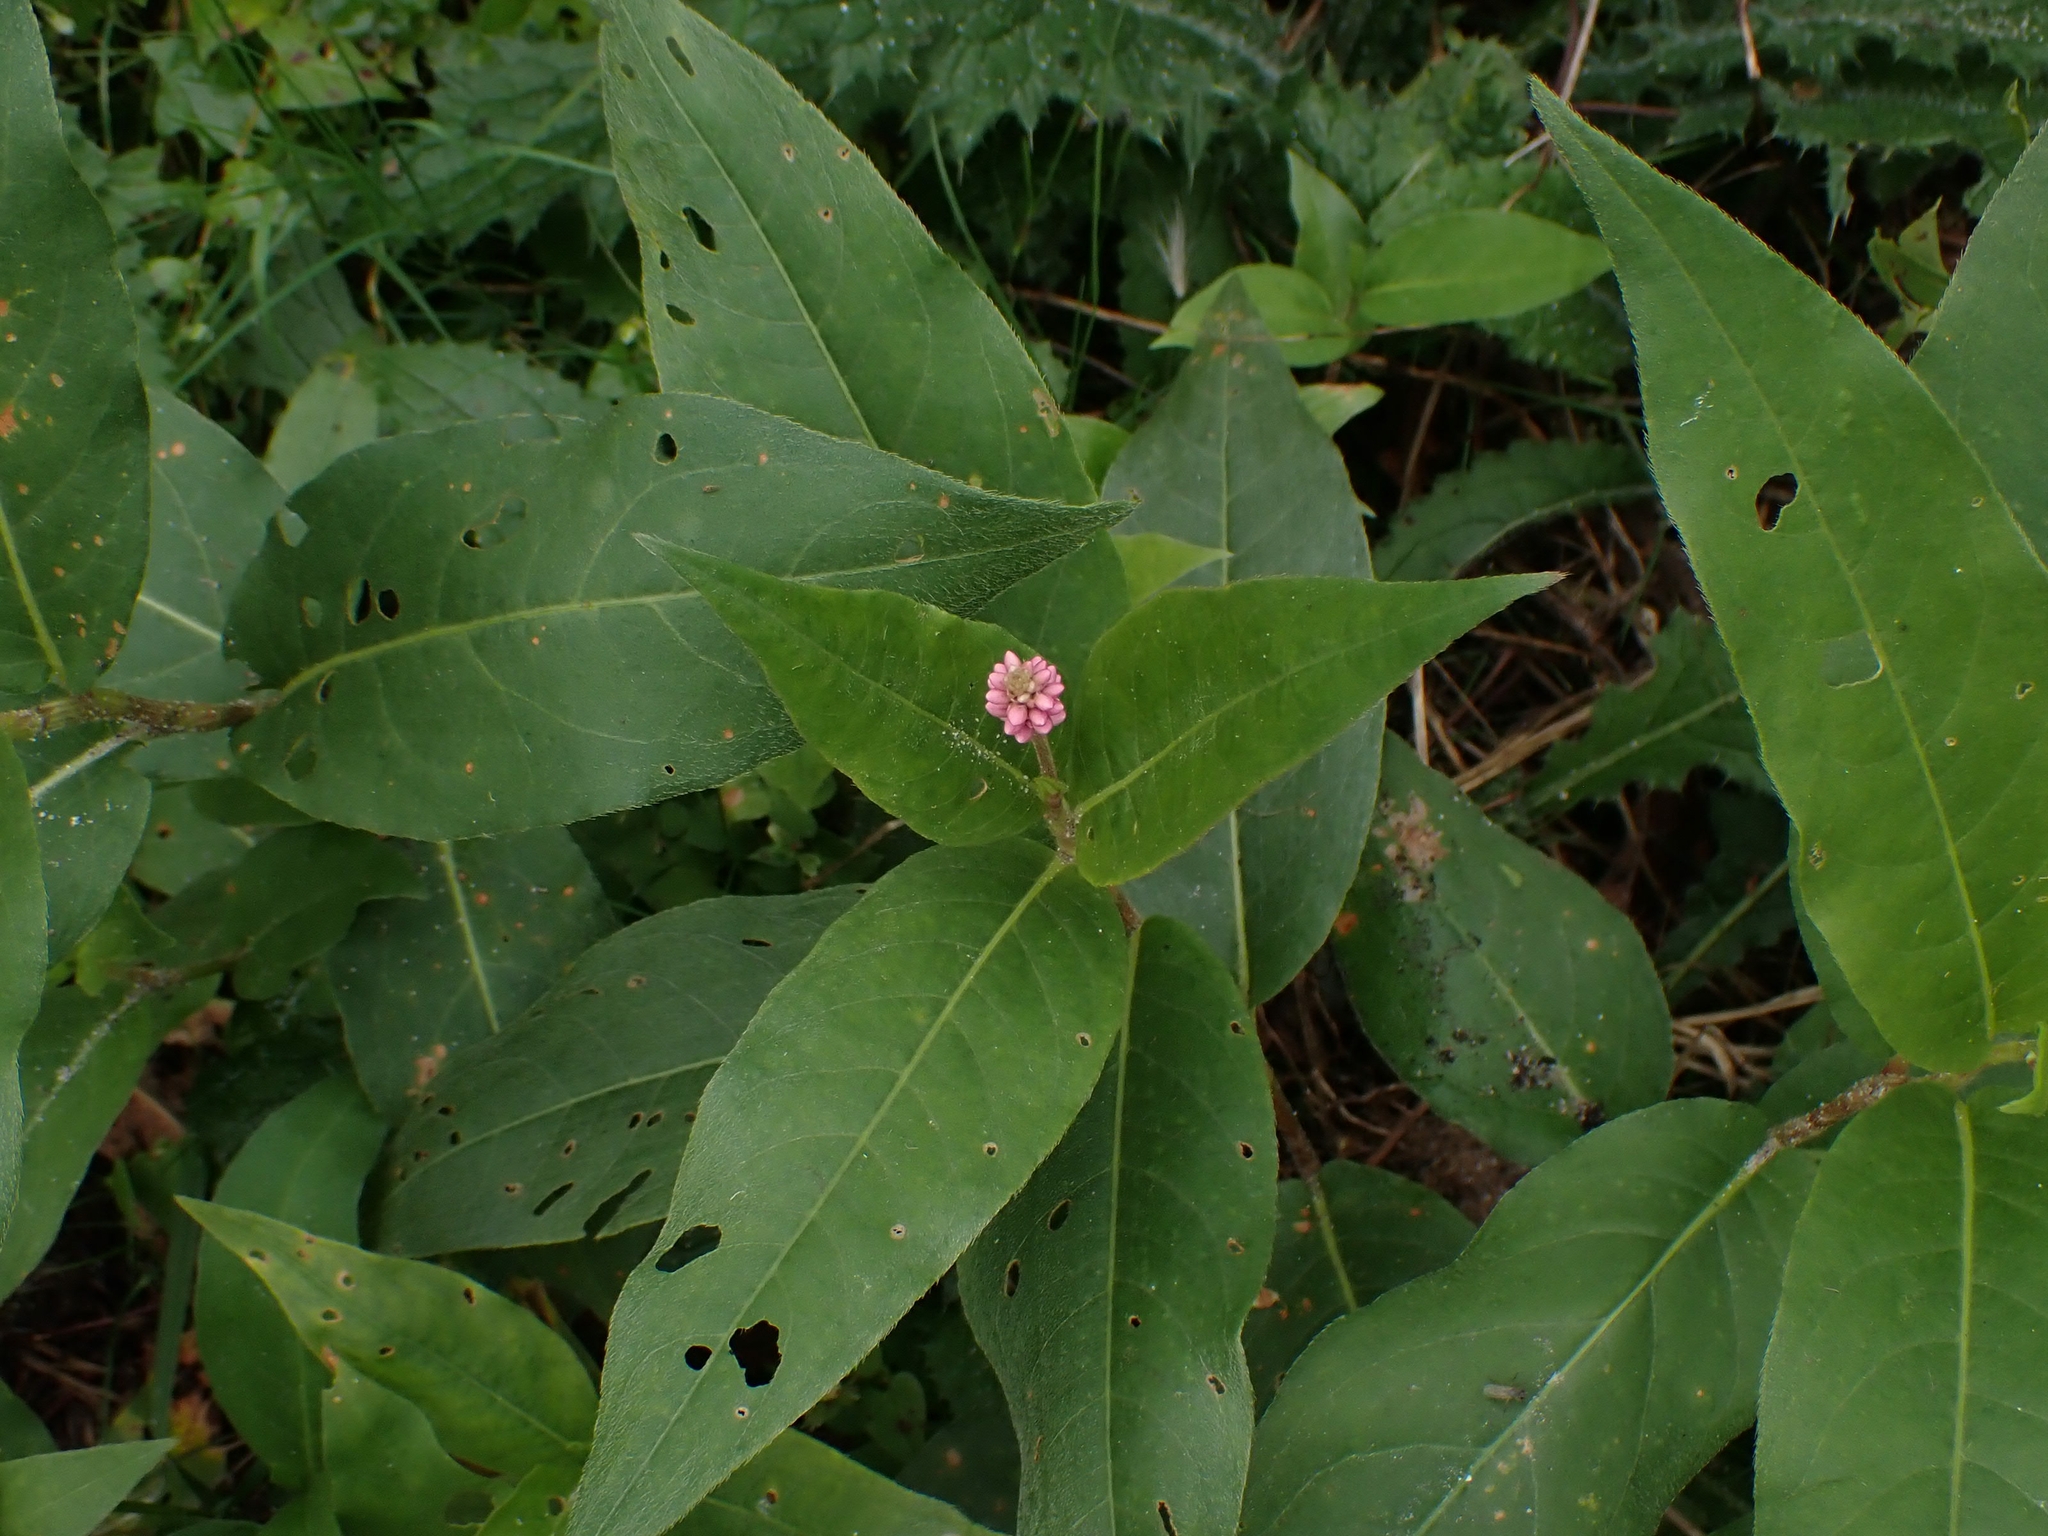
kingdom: Plantae
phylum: Tracheophyta
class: Magnoliopsida
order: Caryophyllales
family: Polygonaceae
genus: Persicaria
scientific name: Persicaria amphibia
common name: Amphibious bistort
